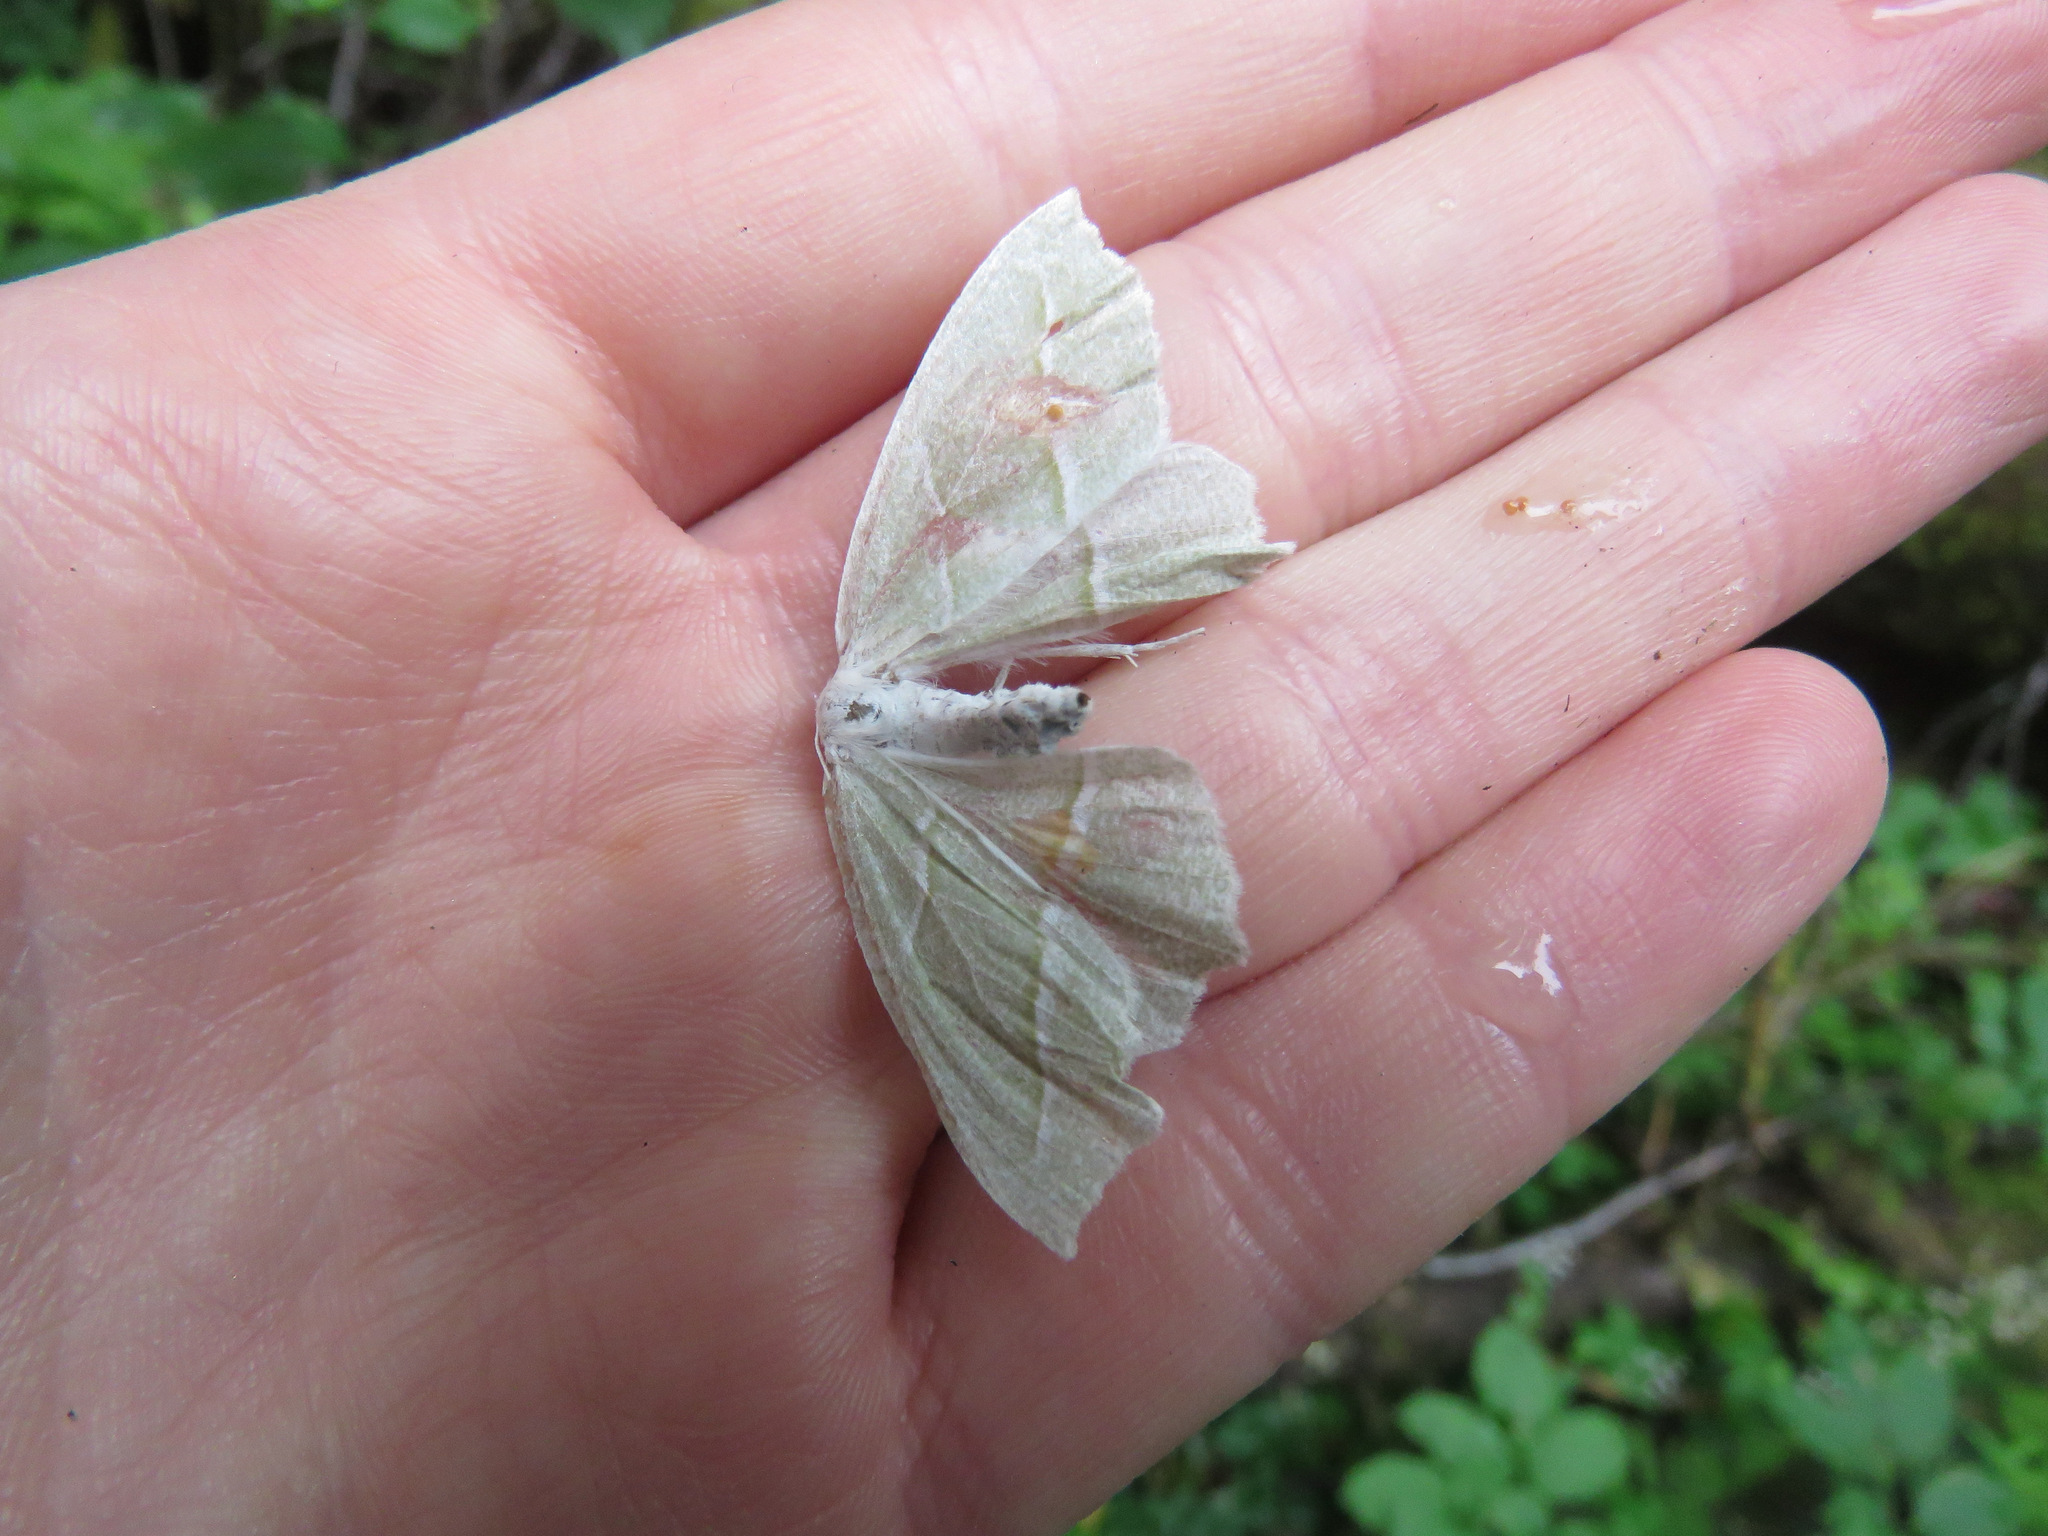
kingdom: Animalia
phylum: Arthropoda
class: Insecta
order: Lepidoptera
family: Geometridae
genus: Campaea
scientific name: Campaea perlata
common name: Fringed looper
